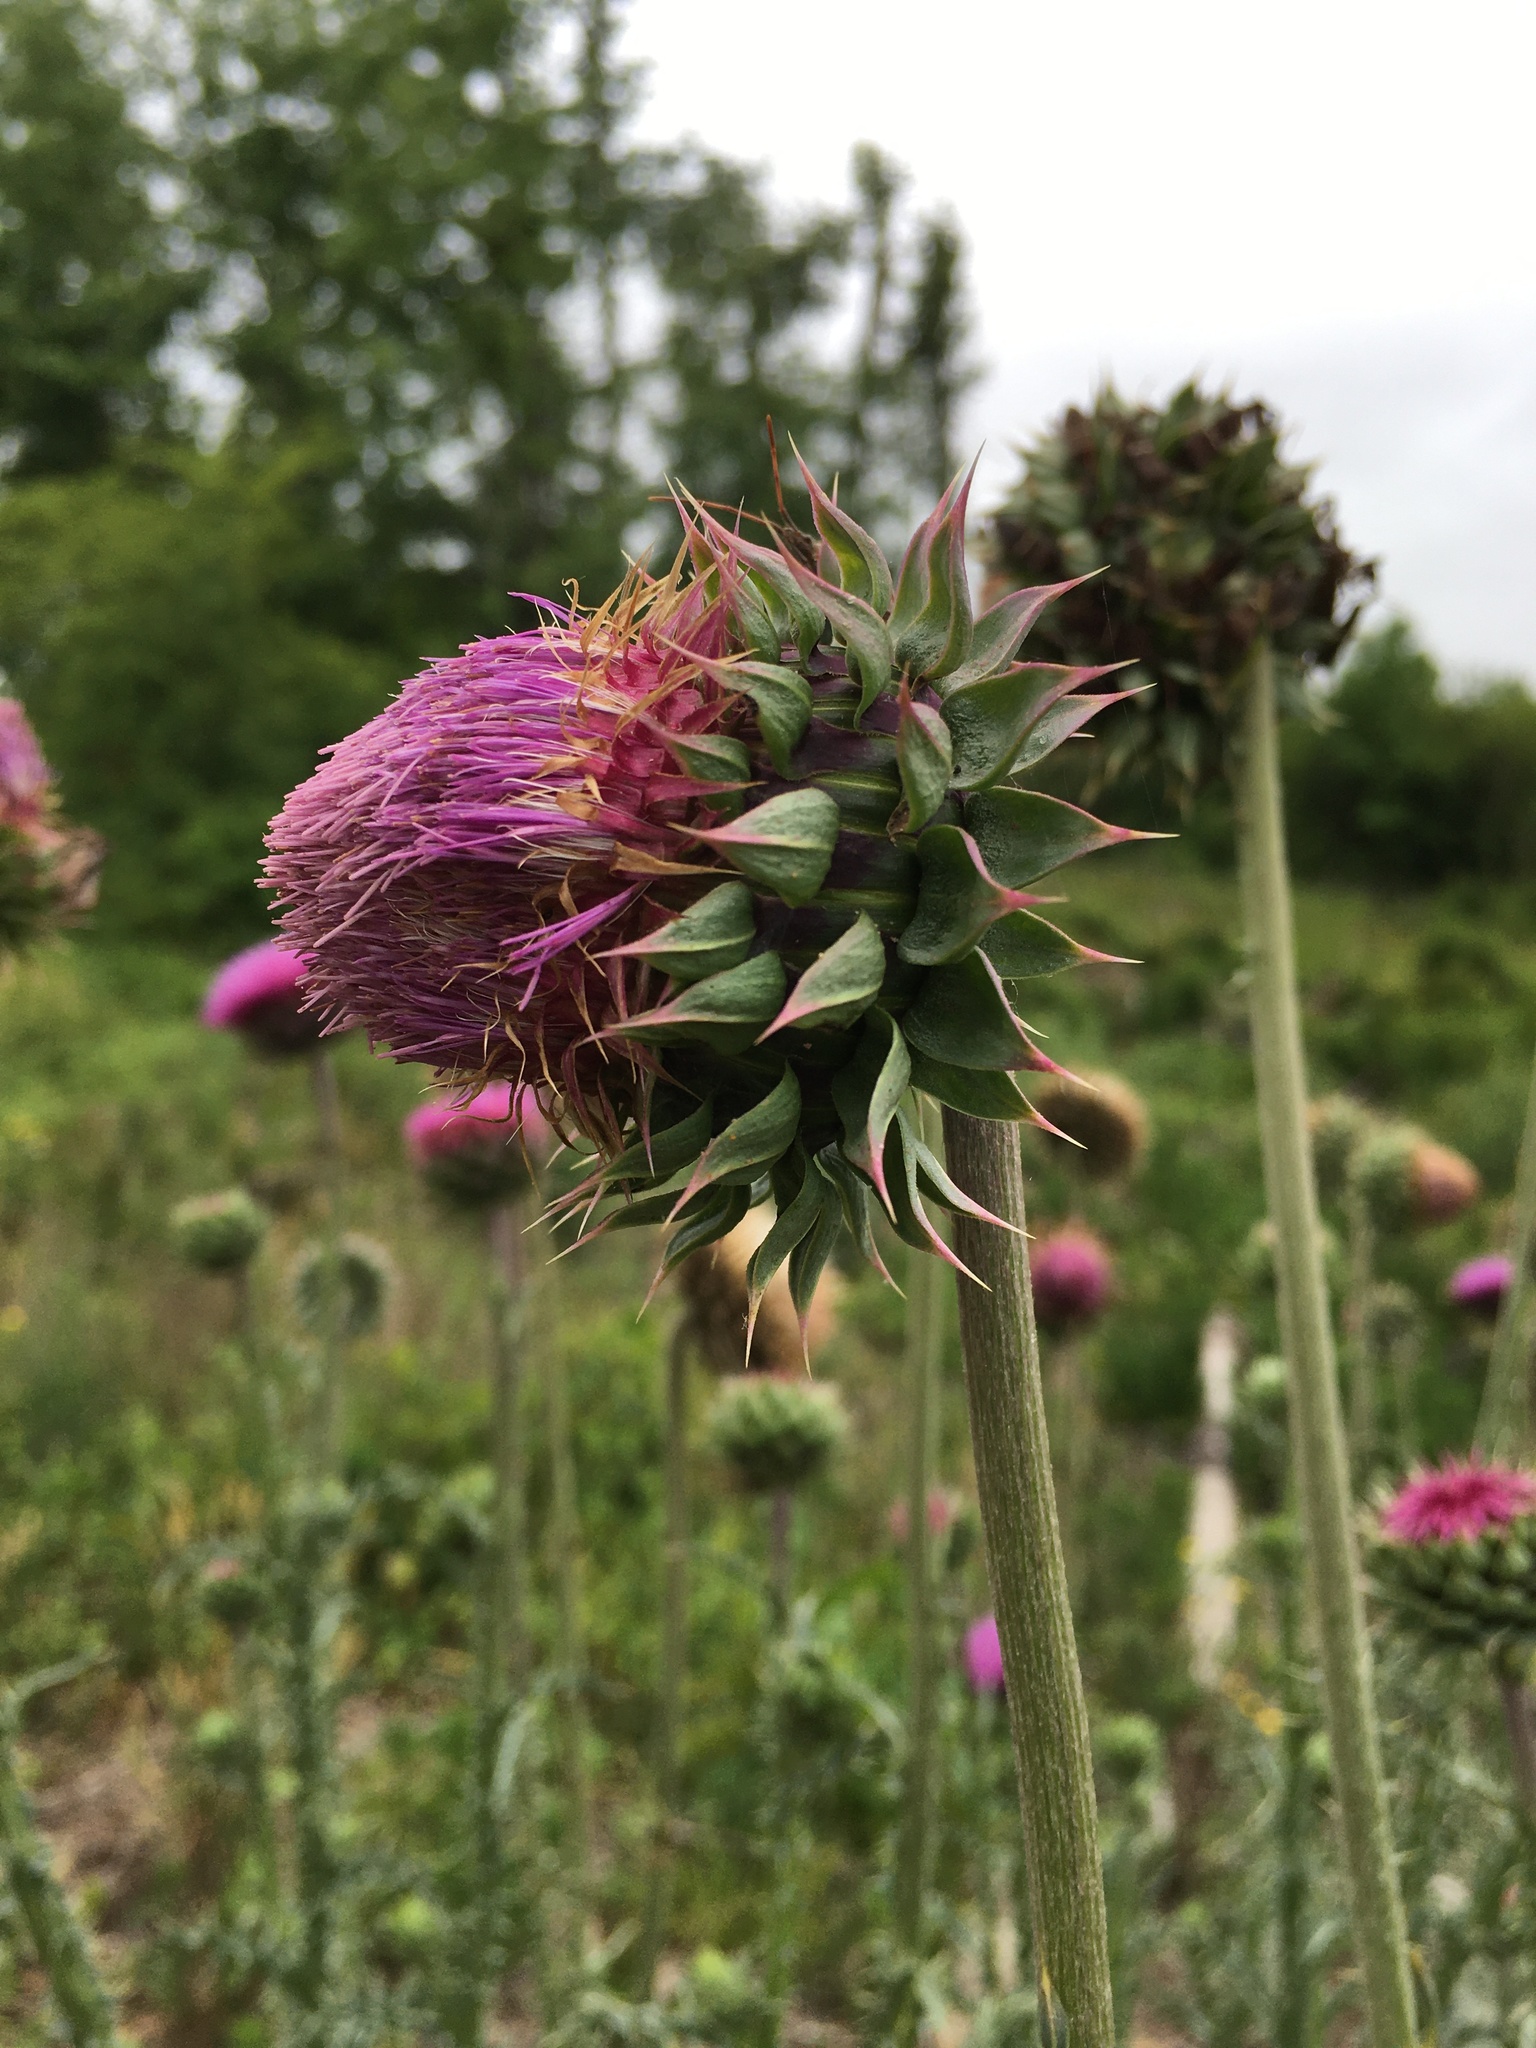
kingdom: Plantae
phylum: Tracheophyta
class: Magnoliopsida
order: Asterales
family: Asteraceae
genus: Carduus
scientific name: Carduus nutans
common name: Musk thistle
